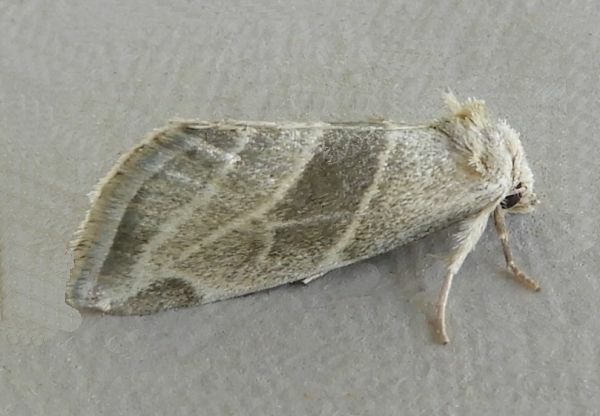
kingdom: Animalia
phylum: Arthropoda
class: Insecta
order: Lepidoptera
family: Noctuidae
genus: Plagiomimicus
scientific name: Plagiomimicus tepperi
